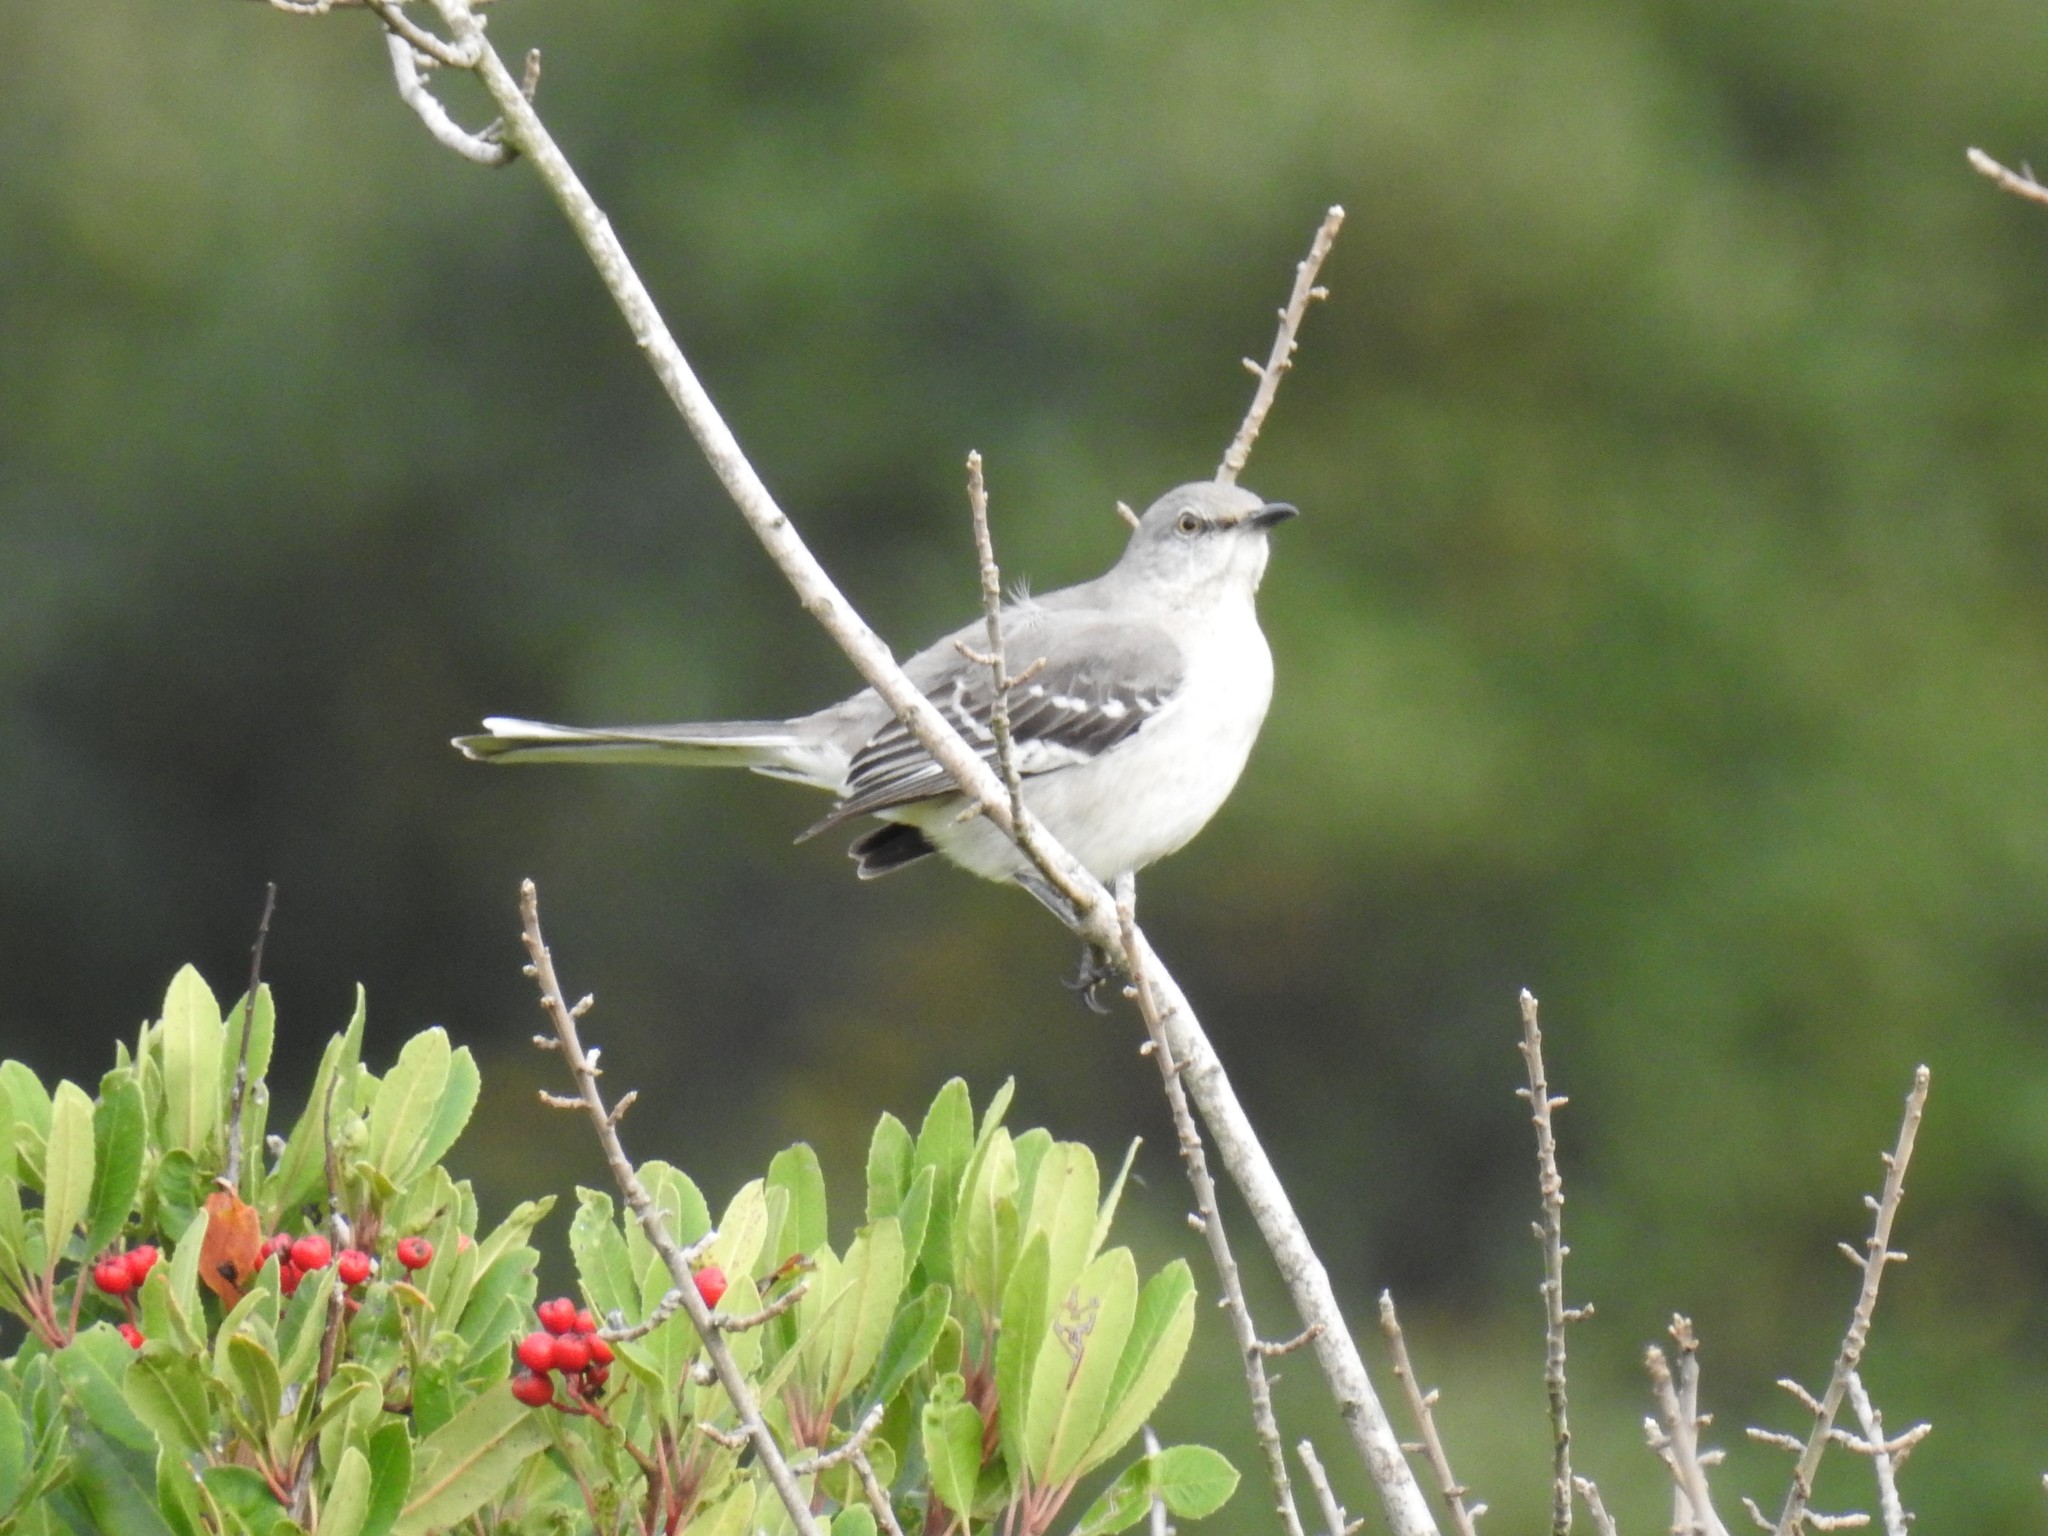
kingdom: Animalia
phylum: Chordata
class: Aves
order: Passeriformes
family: Mimidae
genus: Mimus
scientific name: Mimus polyglottos
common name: Northern mockingbird
